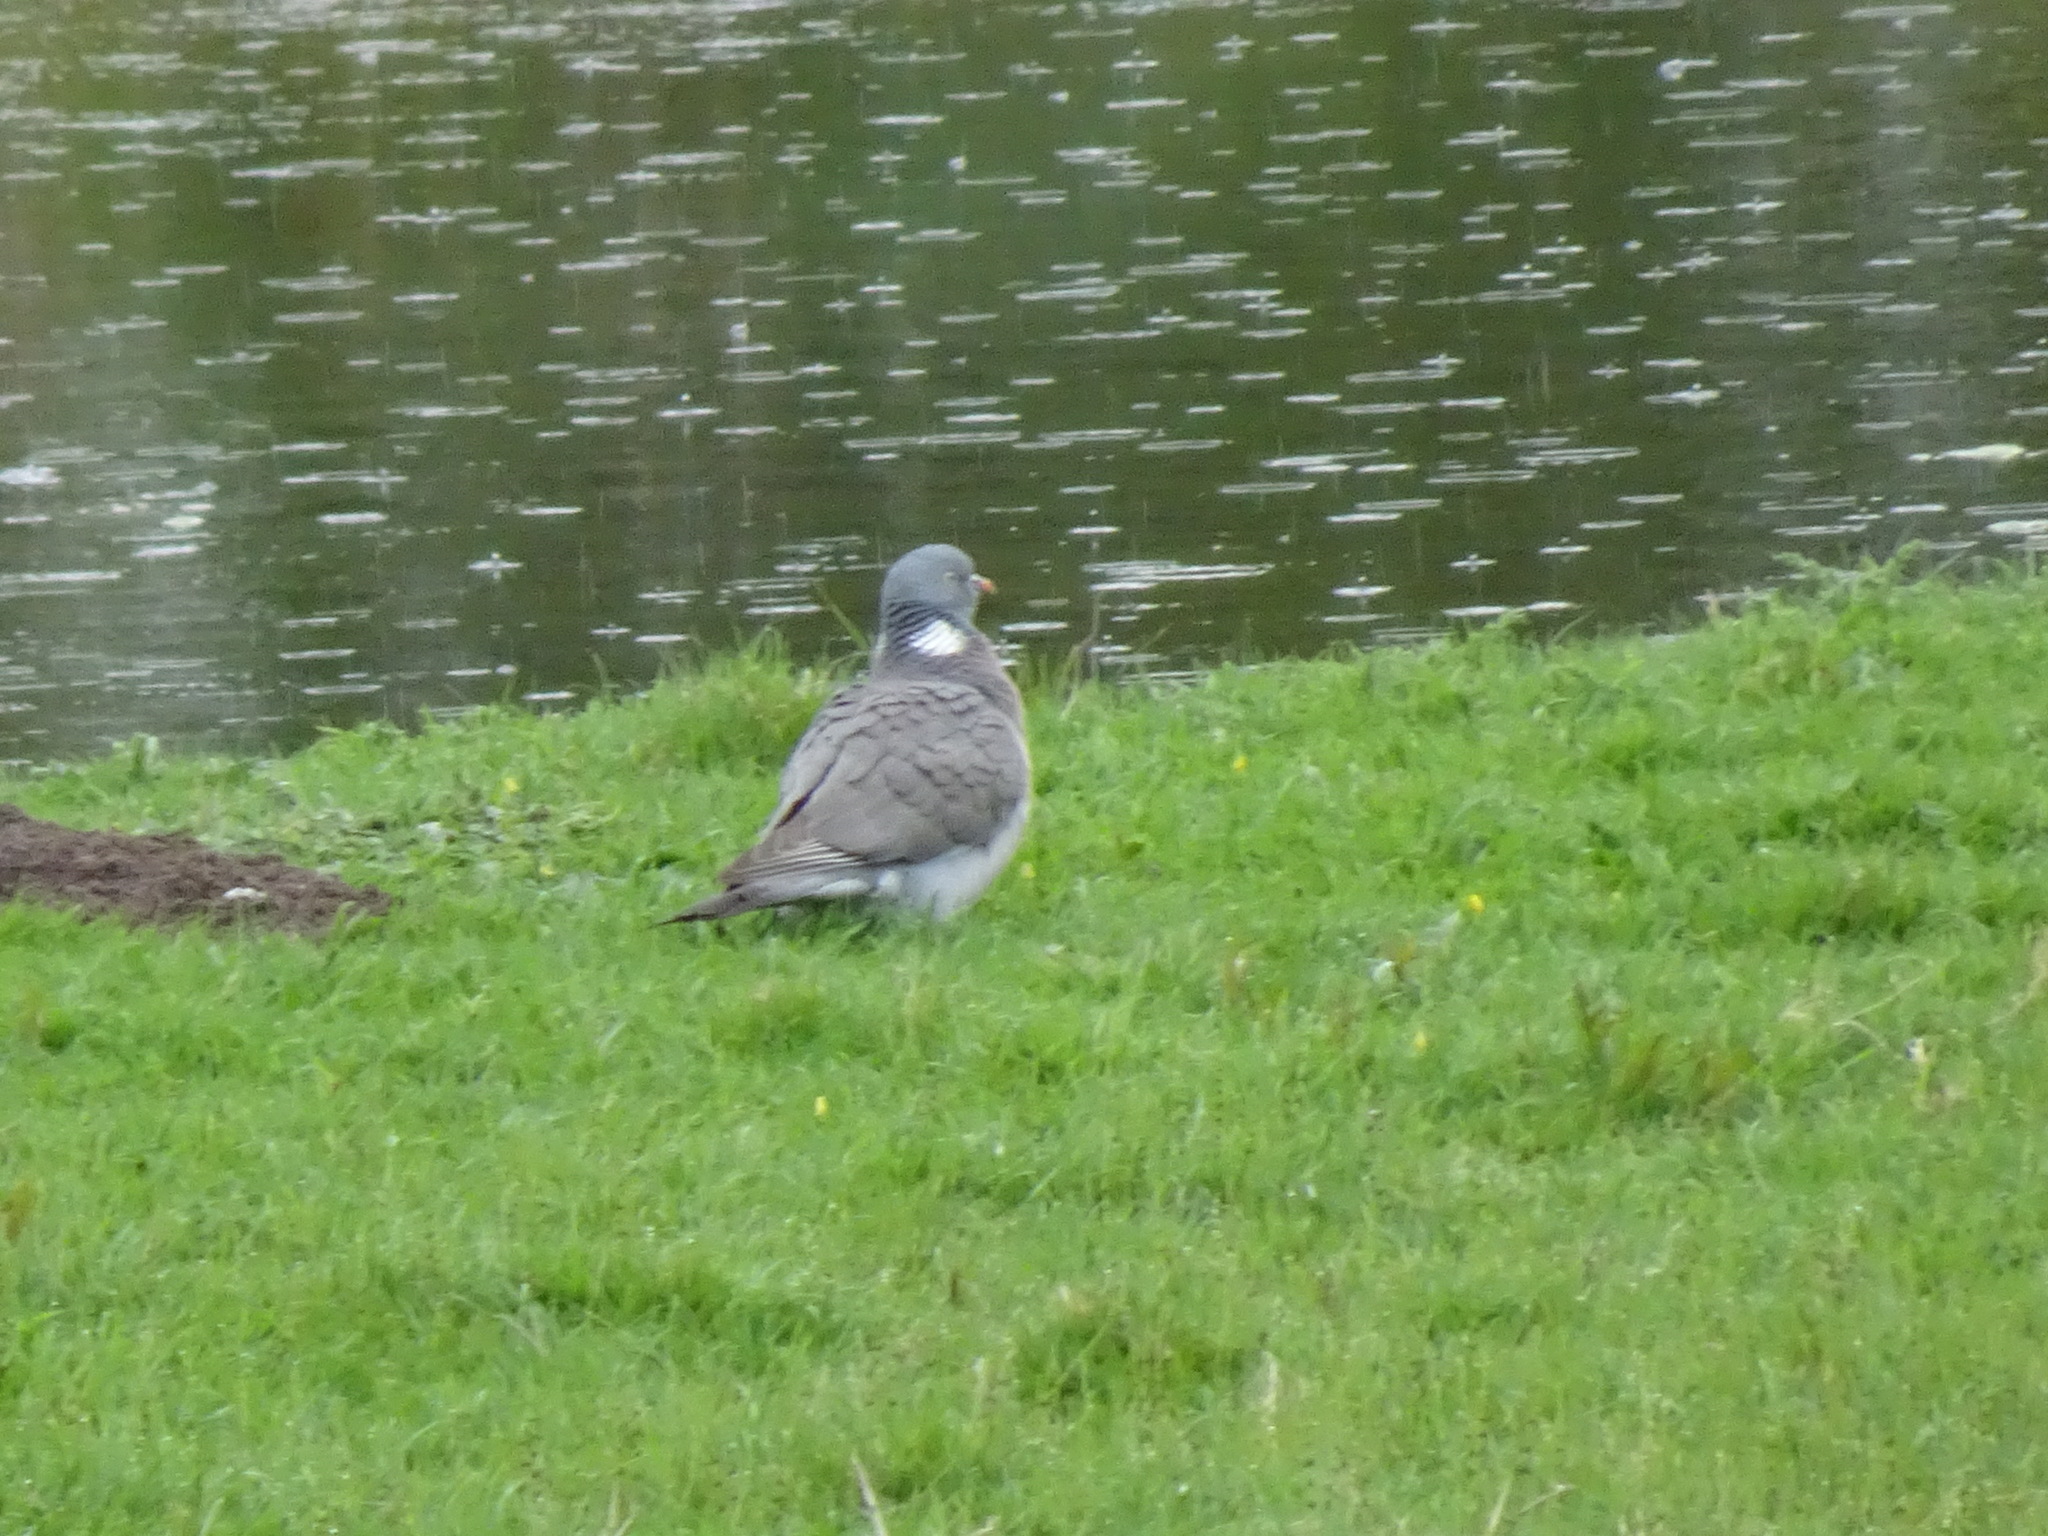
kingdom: Animalia
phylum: Chordata
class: Aves
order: Columbiformes
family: Columbidae
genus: Columba
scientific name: Columba palumbus
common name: Common wood pigeon
